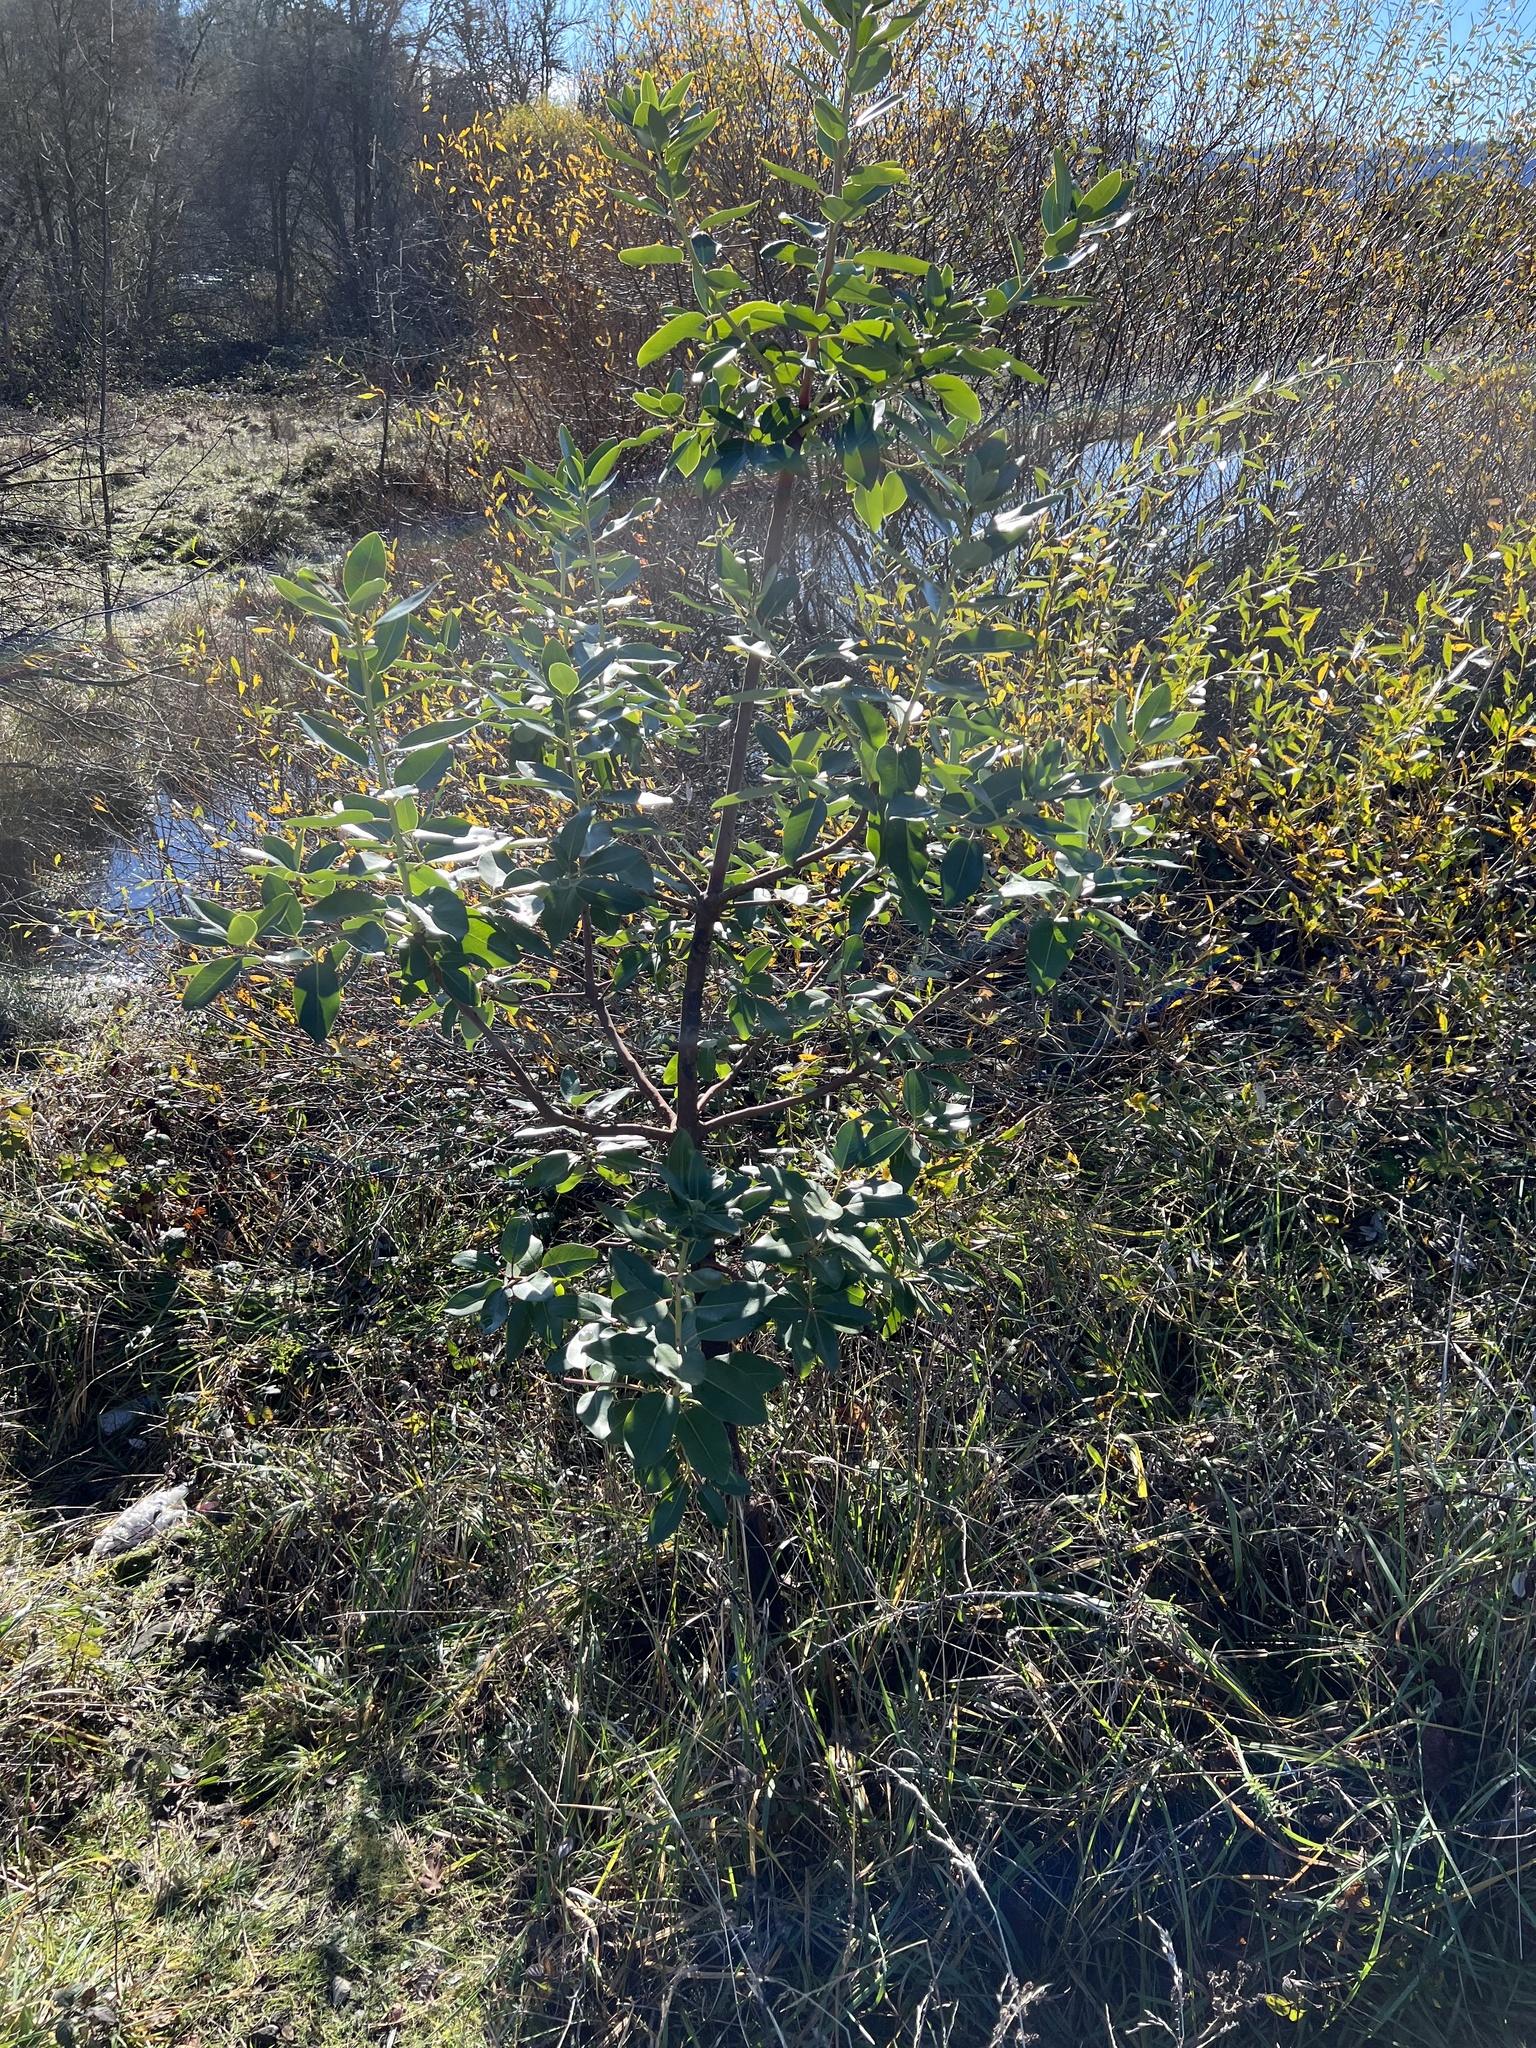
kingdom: Plantae
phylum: Tracheophyta
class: Magnoliopsida
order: Ericales
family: Ericaceae
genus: Arbutus
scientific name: Arbutus menziesii
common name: Pacific madrone
